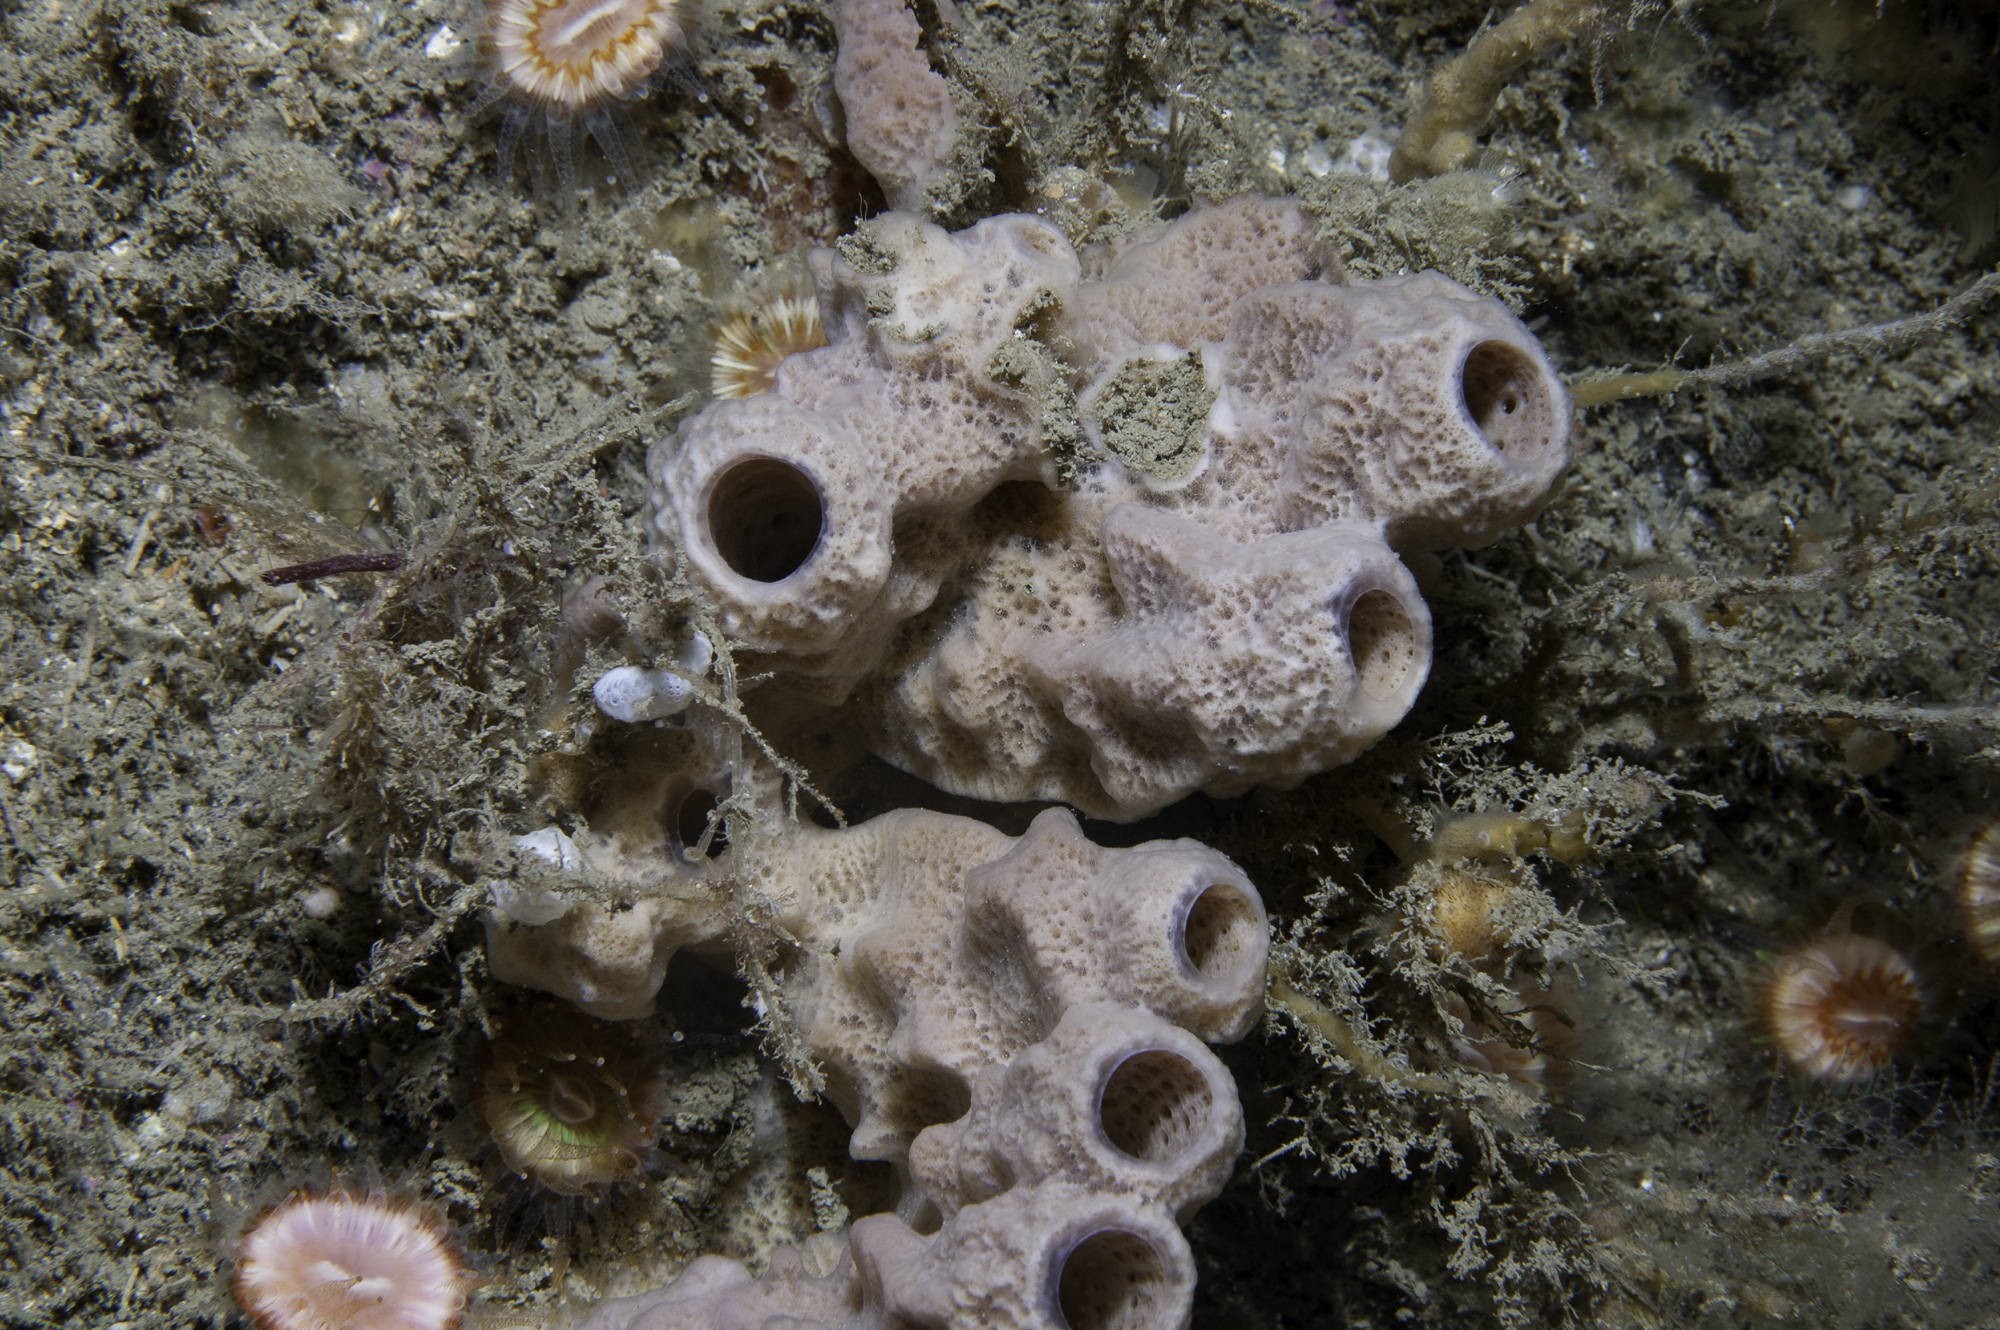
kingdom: Animalia
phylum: Porifera
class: Demospongiae
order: Haplosclerida
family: Chalinidae
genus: Haliclona
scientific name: Haliclona viscosa
